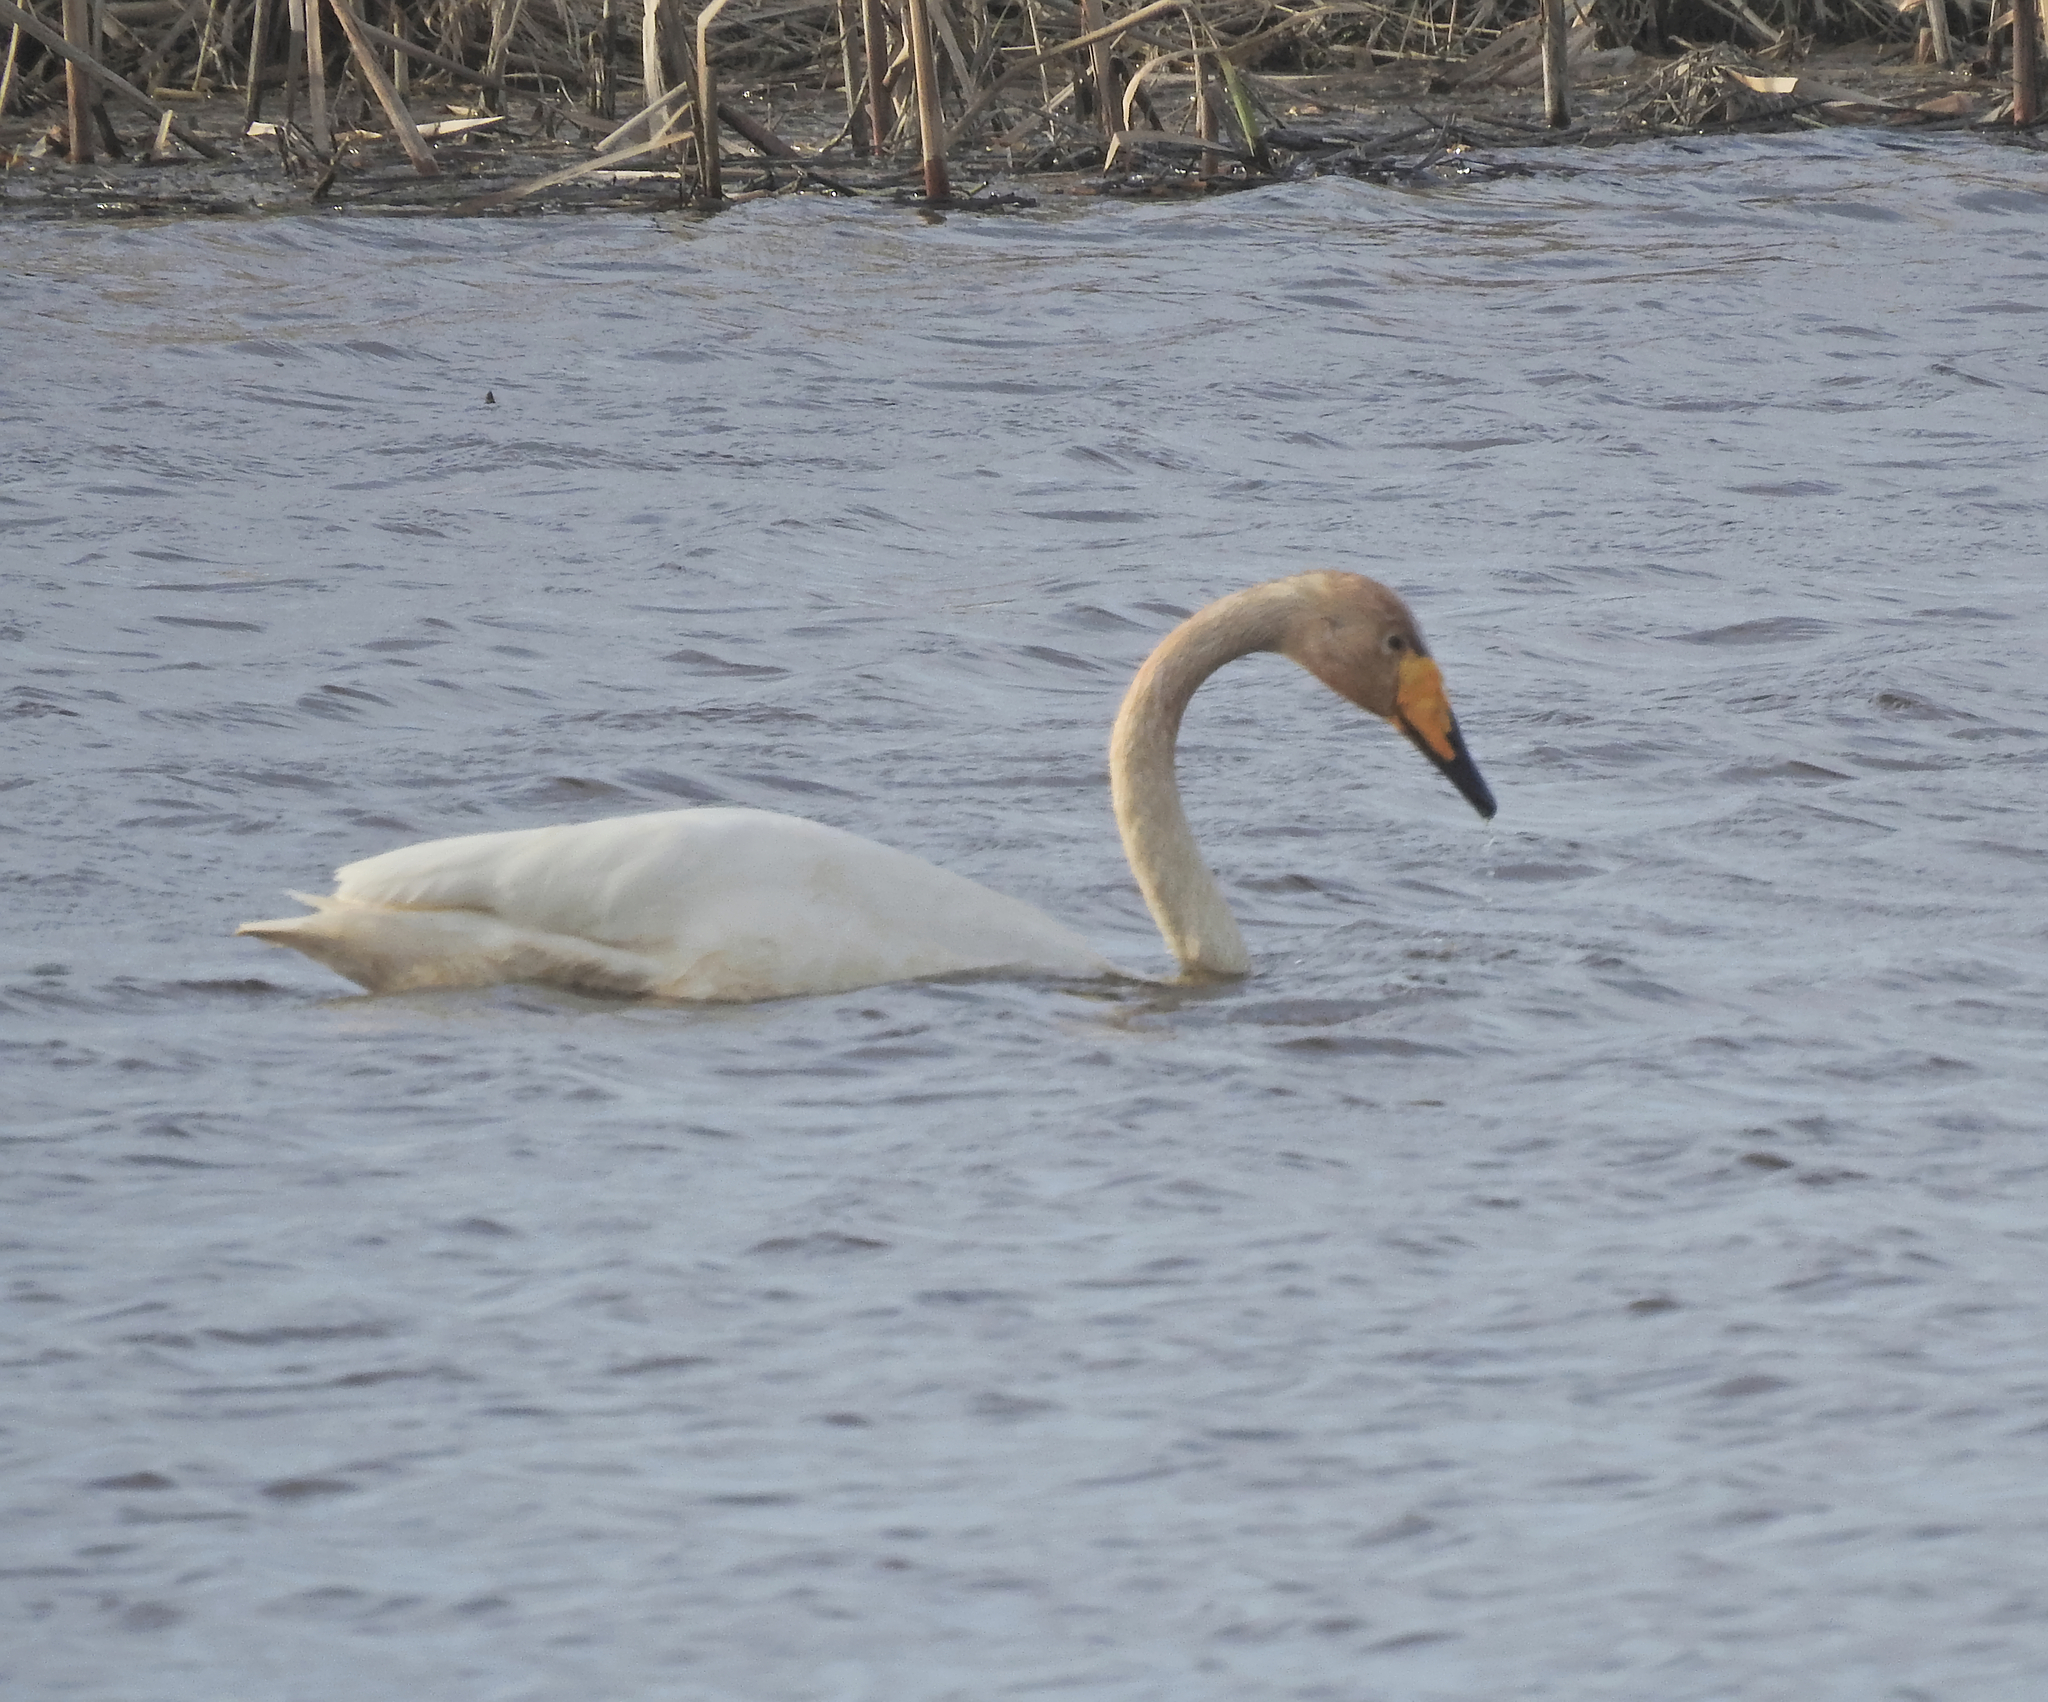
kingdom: Animalia
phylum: Chordata
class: Aves
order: Anseriformes
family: Anatidae
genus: Cygnus
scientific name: Cygnus cygnus
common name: Whooper swan
